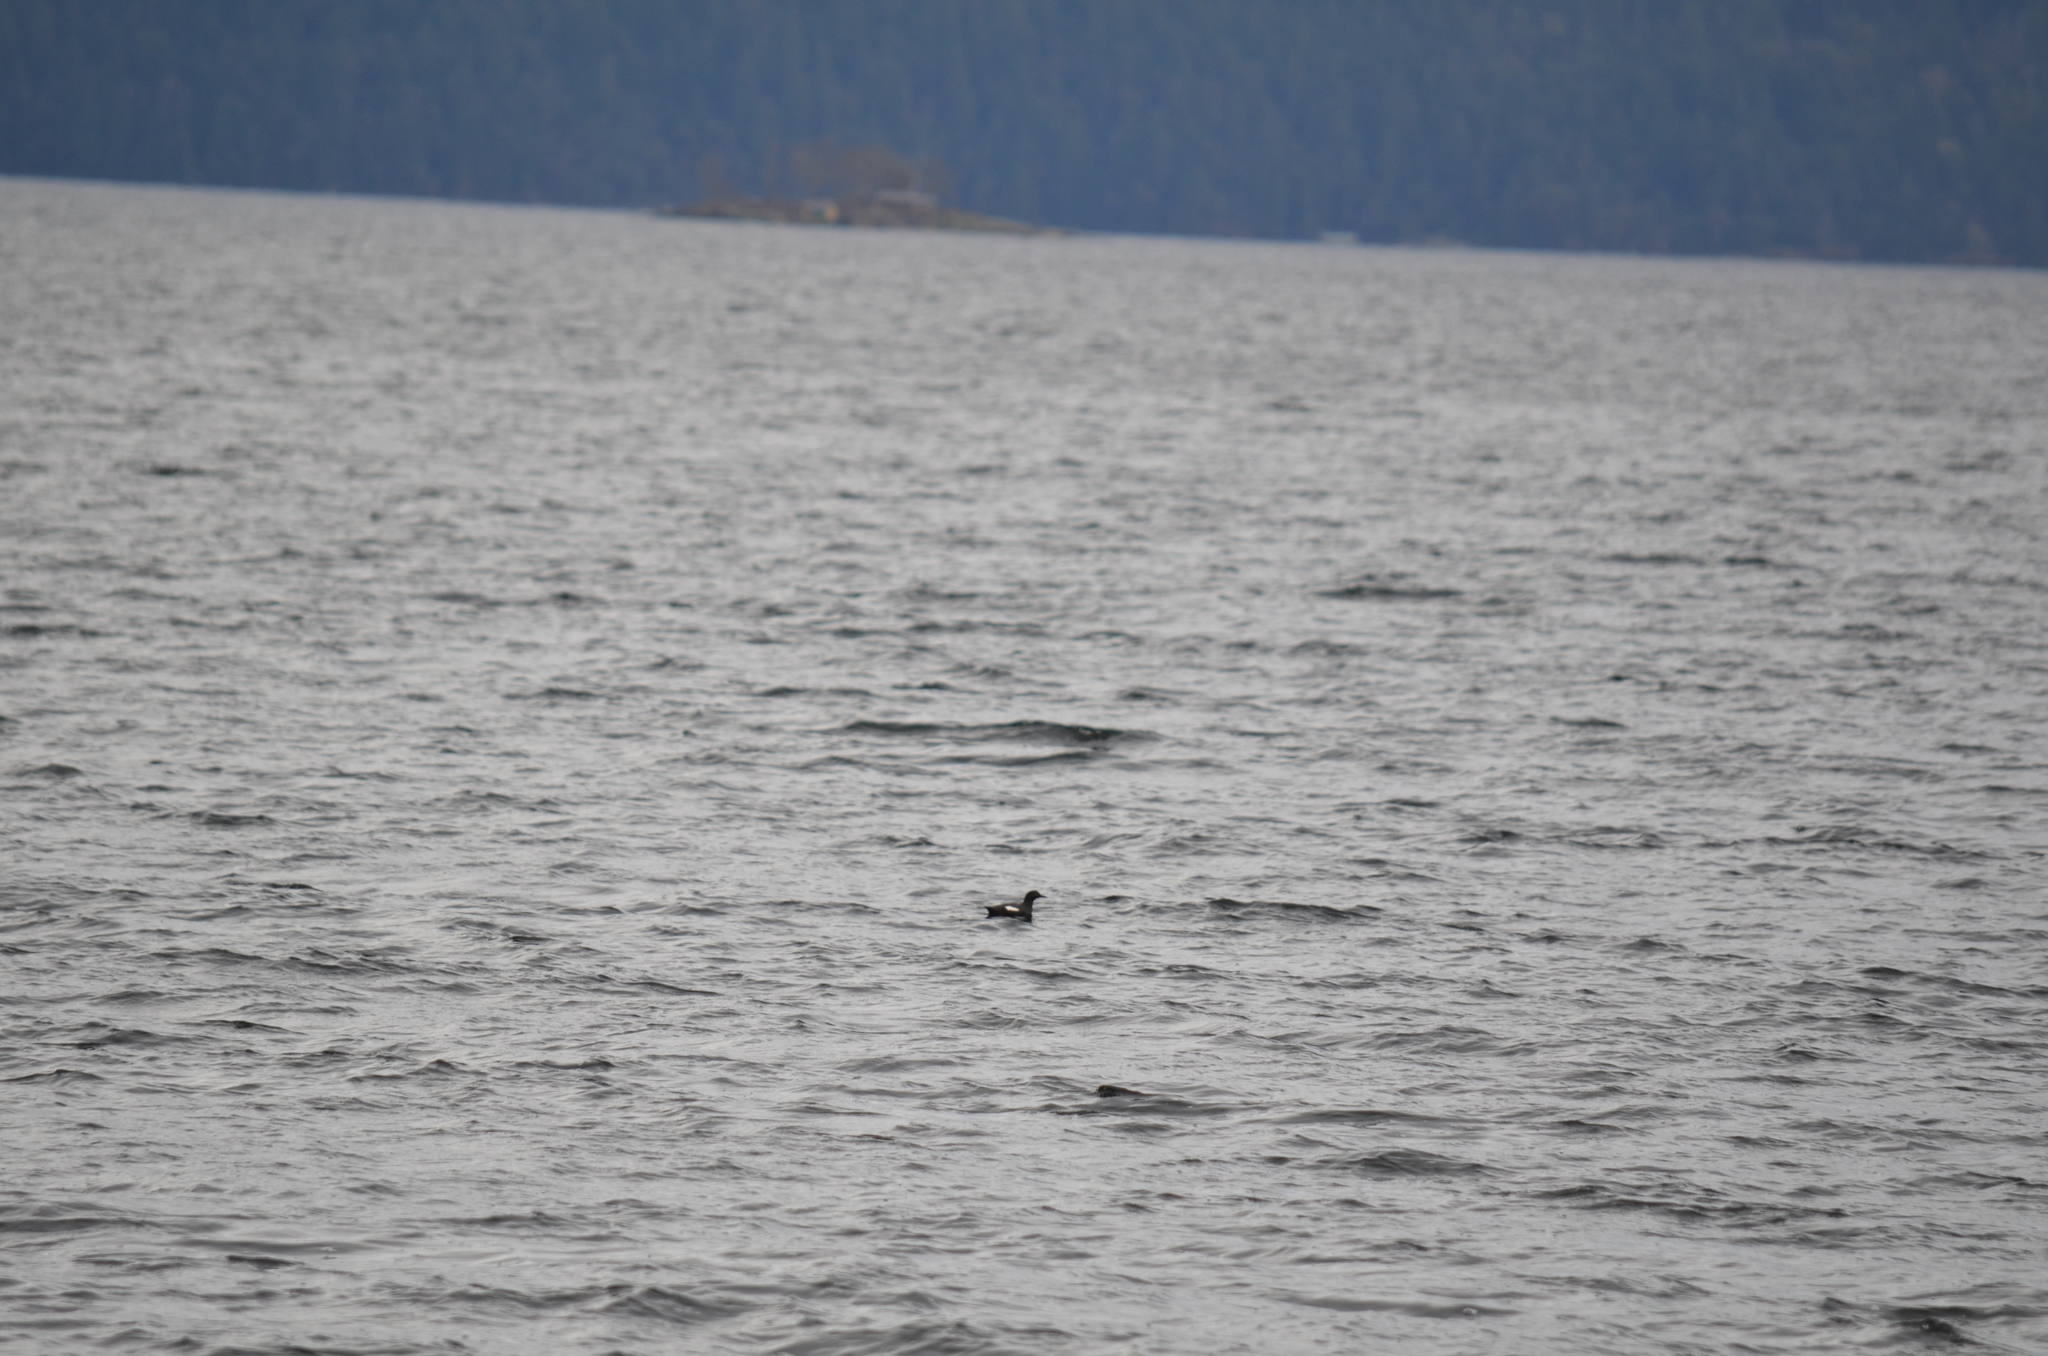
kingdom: Animalia
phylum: Chordata
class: Aves
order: Charadriiformes
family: Alcidae
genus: Cepphus
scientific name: Cepphus columba
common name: Pigeon guillemot
